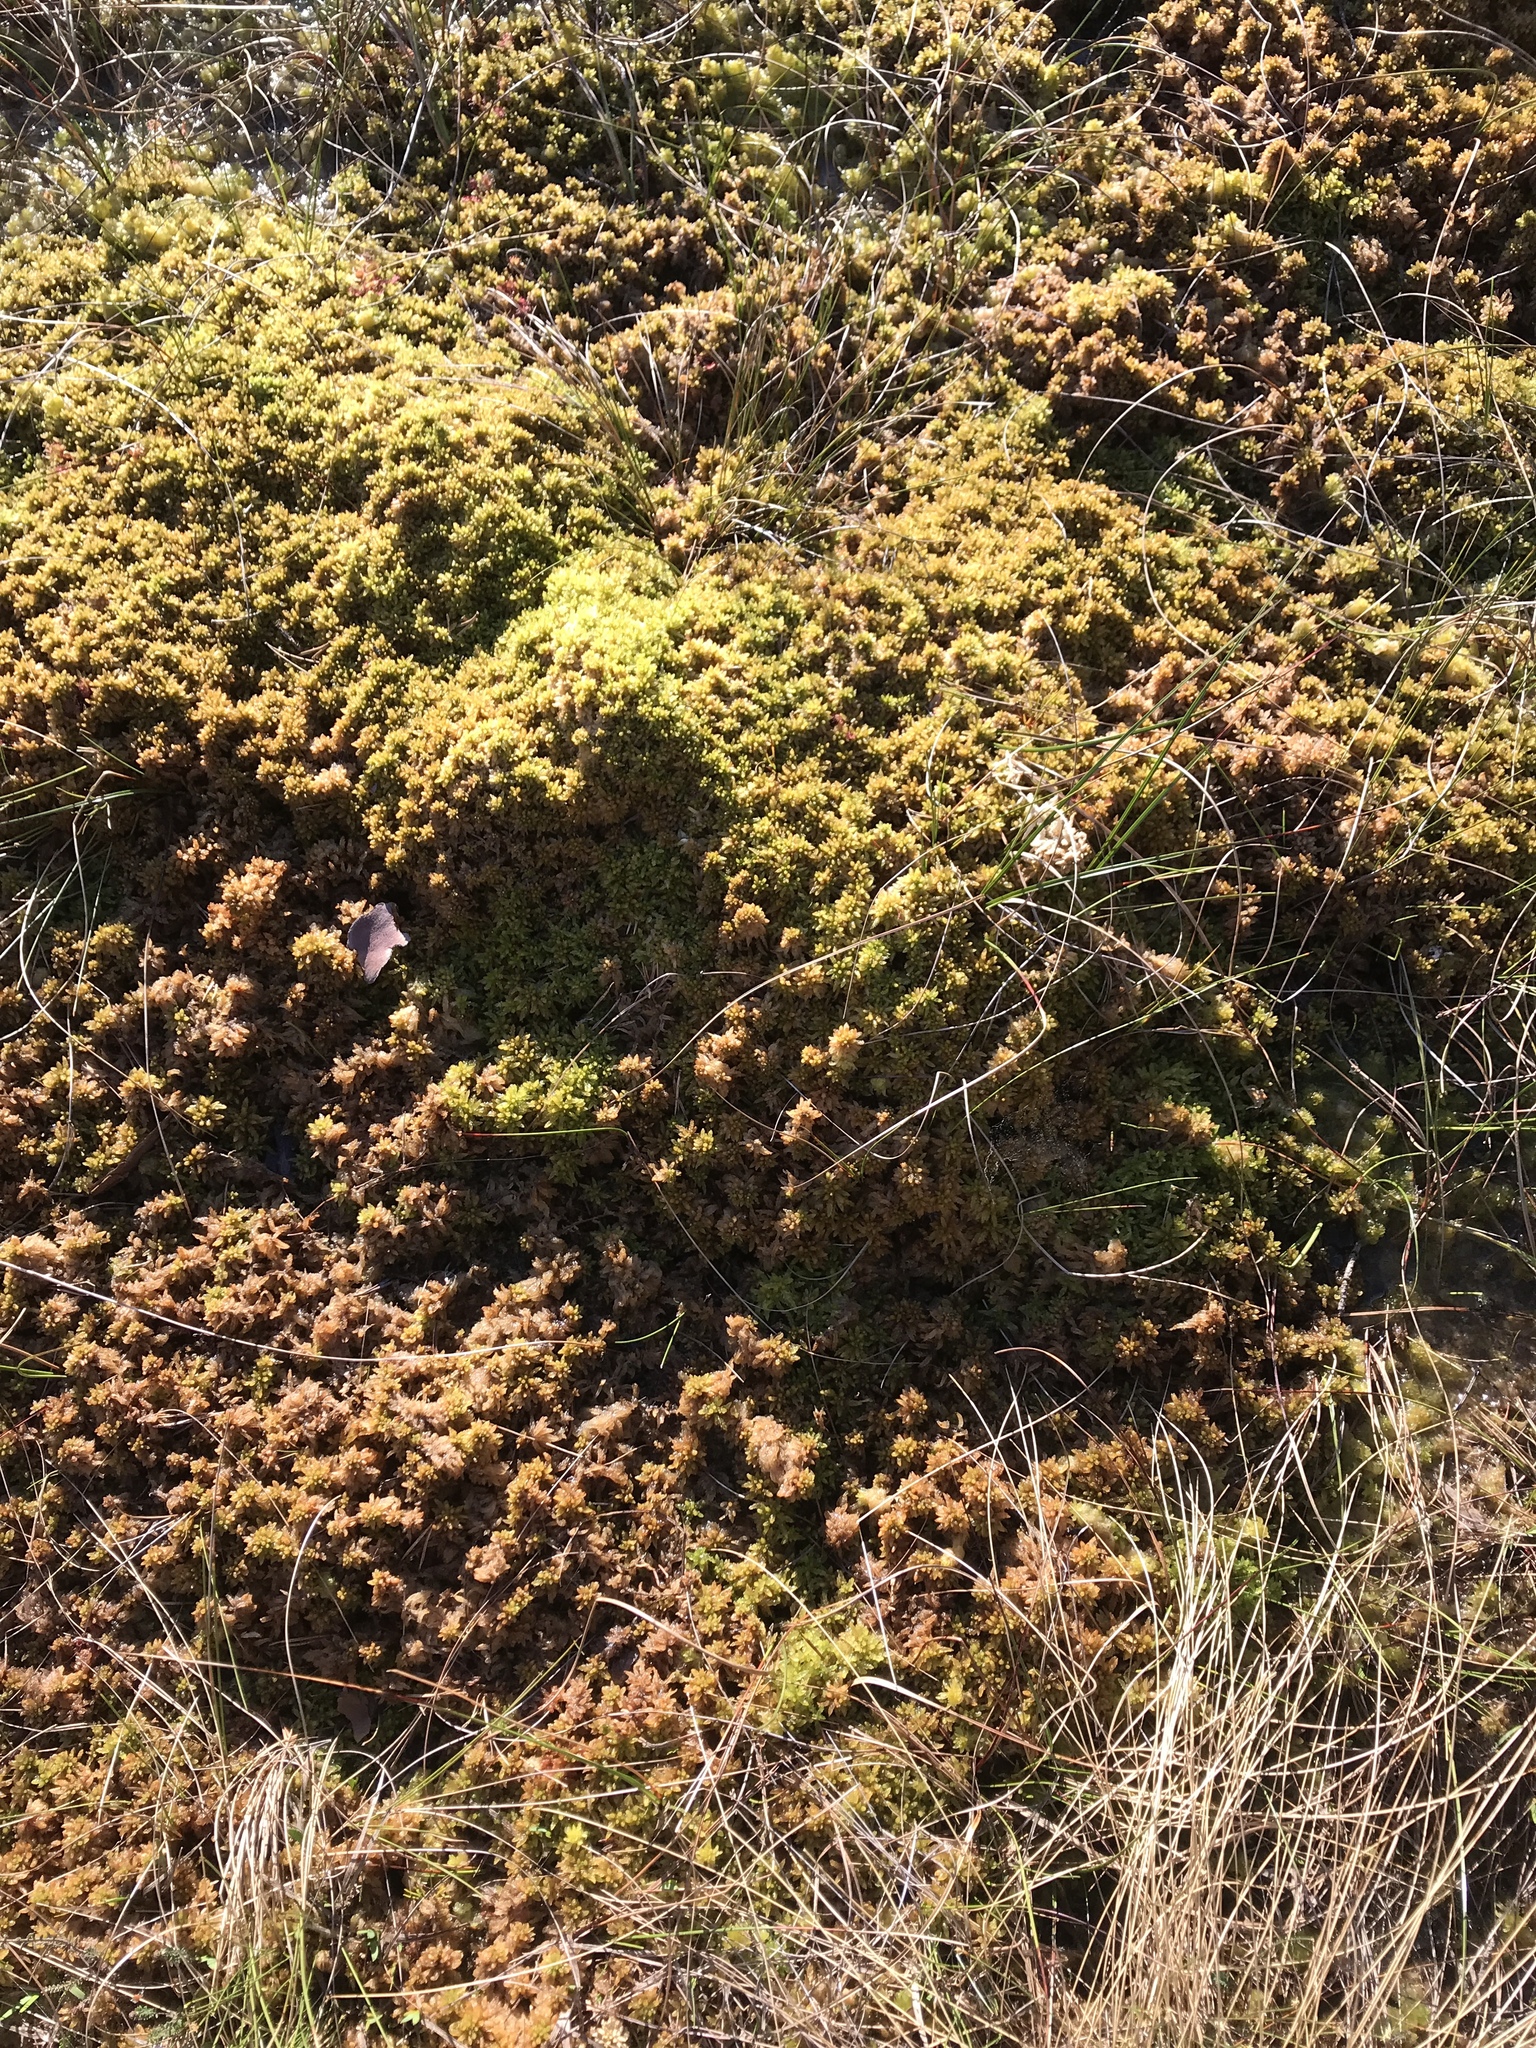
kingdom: Plantae
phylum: Bryophyta
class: Sphagnopsida
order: Sphagnales
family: Sphagnaceae
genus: Sphagnum
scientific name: Sphagnum papillosum
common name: Papillose peat moss
